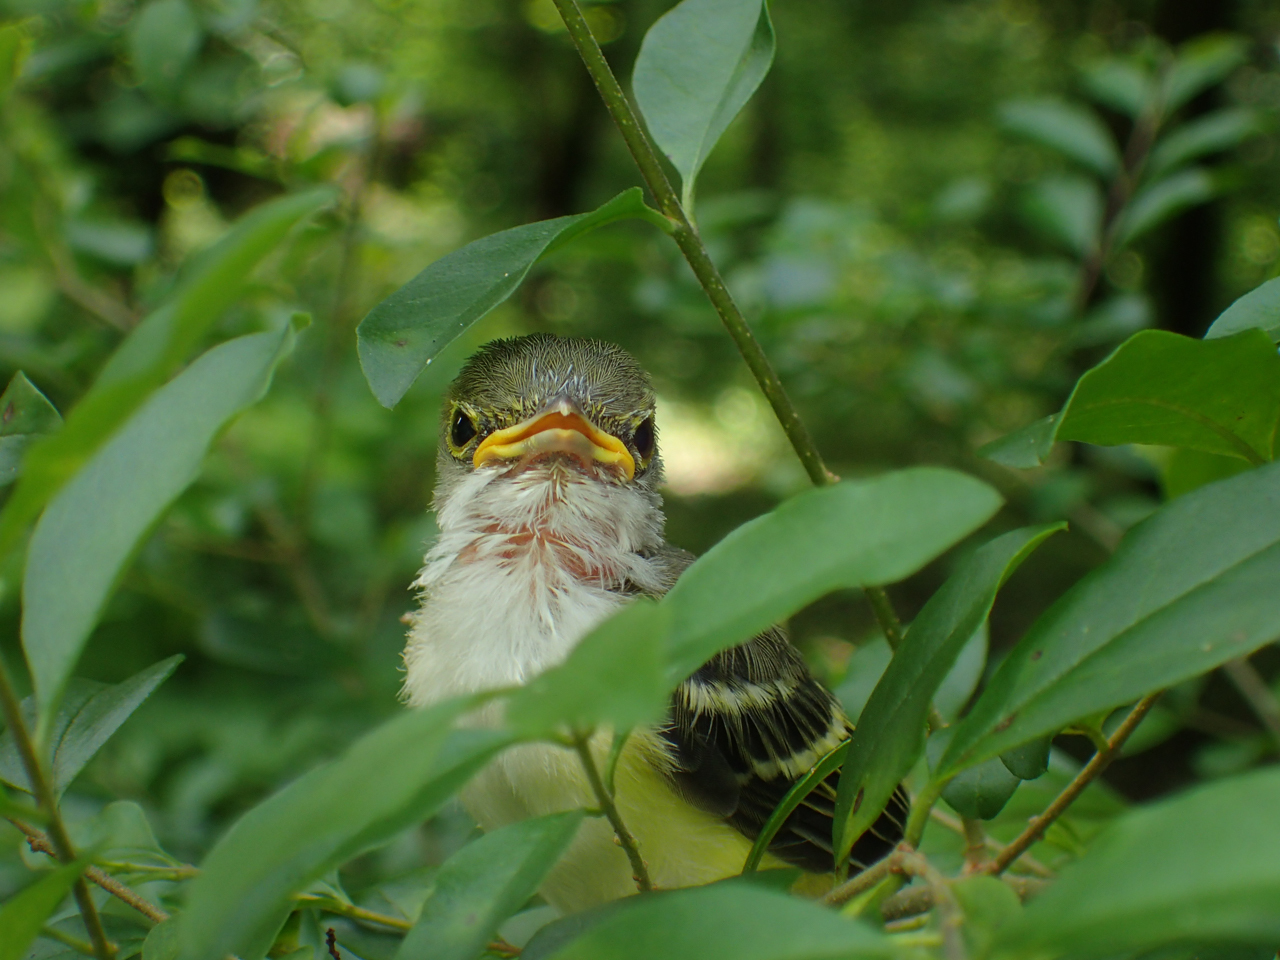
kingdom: Animalia
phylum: Chordata
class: Aves
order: Passeriformes
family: Vireonidae
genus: Vireo
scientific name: Vireo griseus
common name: White-eyed vireo
